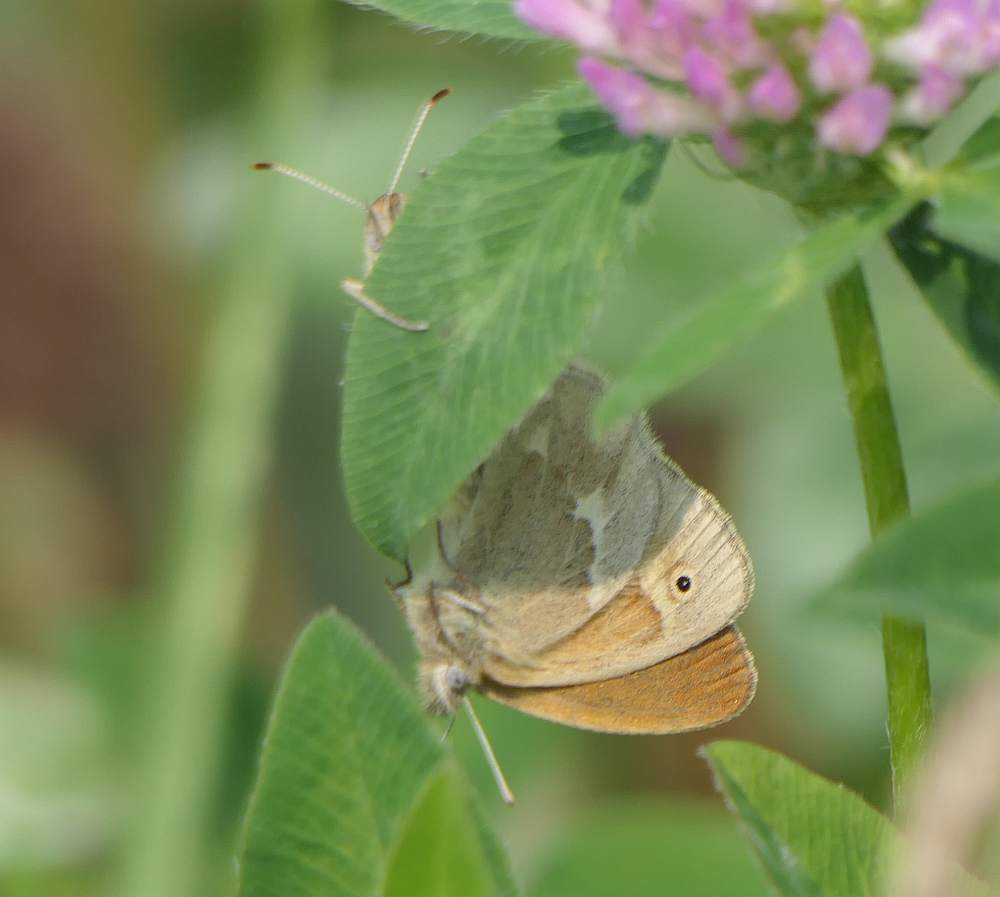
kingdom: Animalia
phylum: Arthropoda
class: Insecta
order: Lepidoptera
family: Nymphalidae
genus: Coenonympha
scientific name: Coenonympha california
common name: Common ringlet
